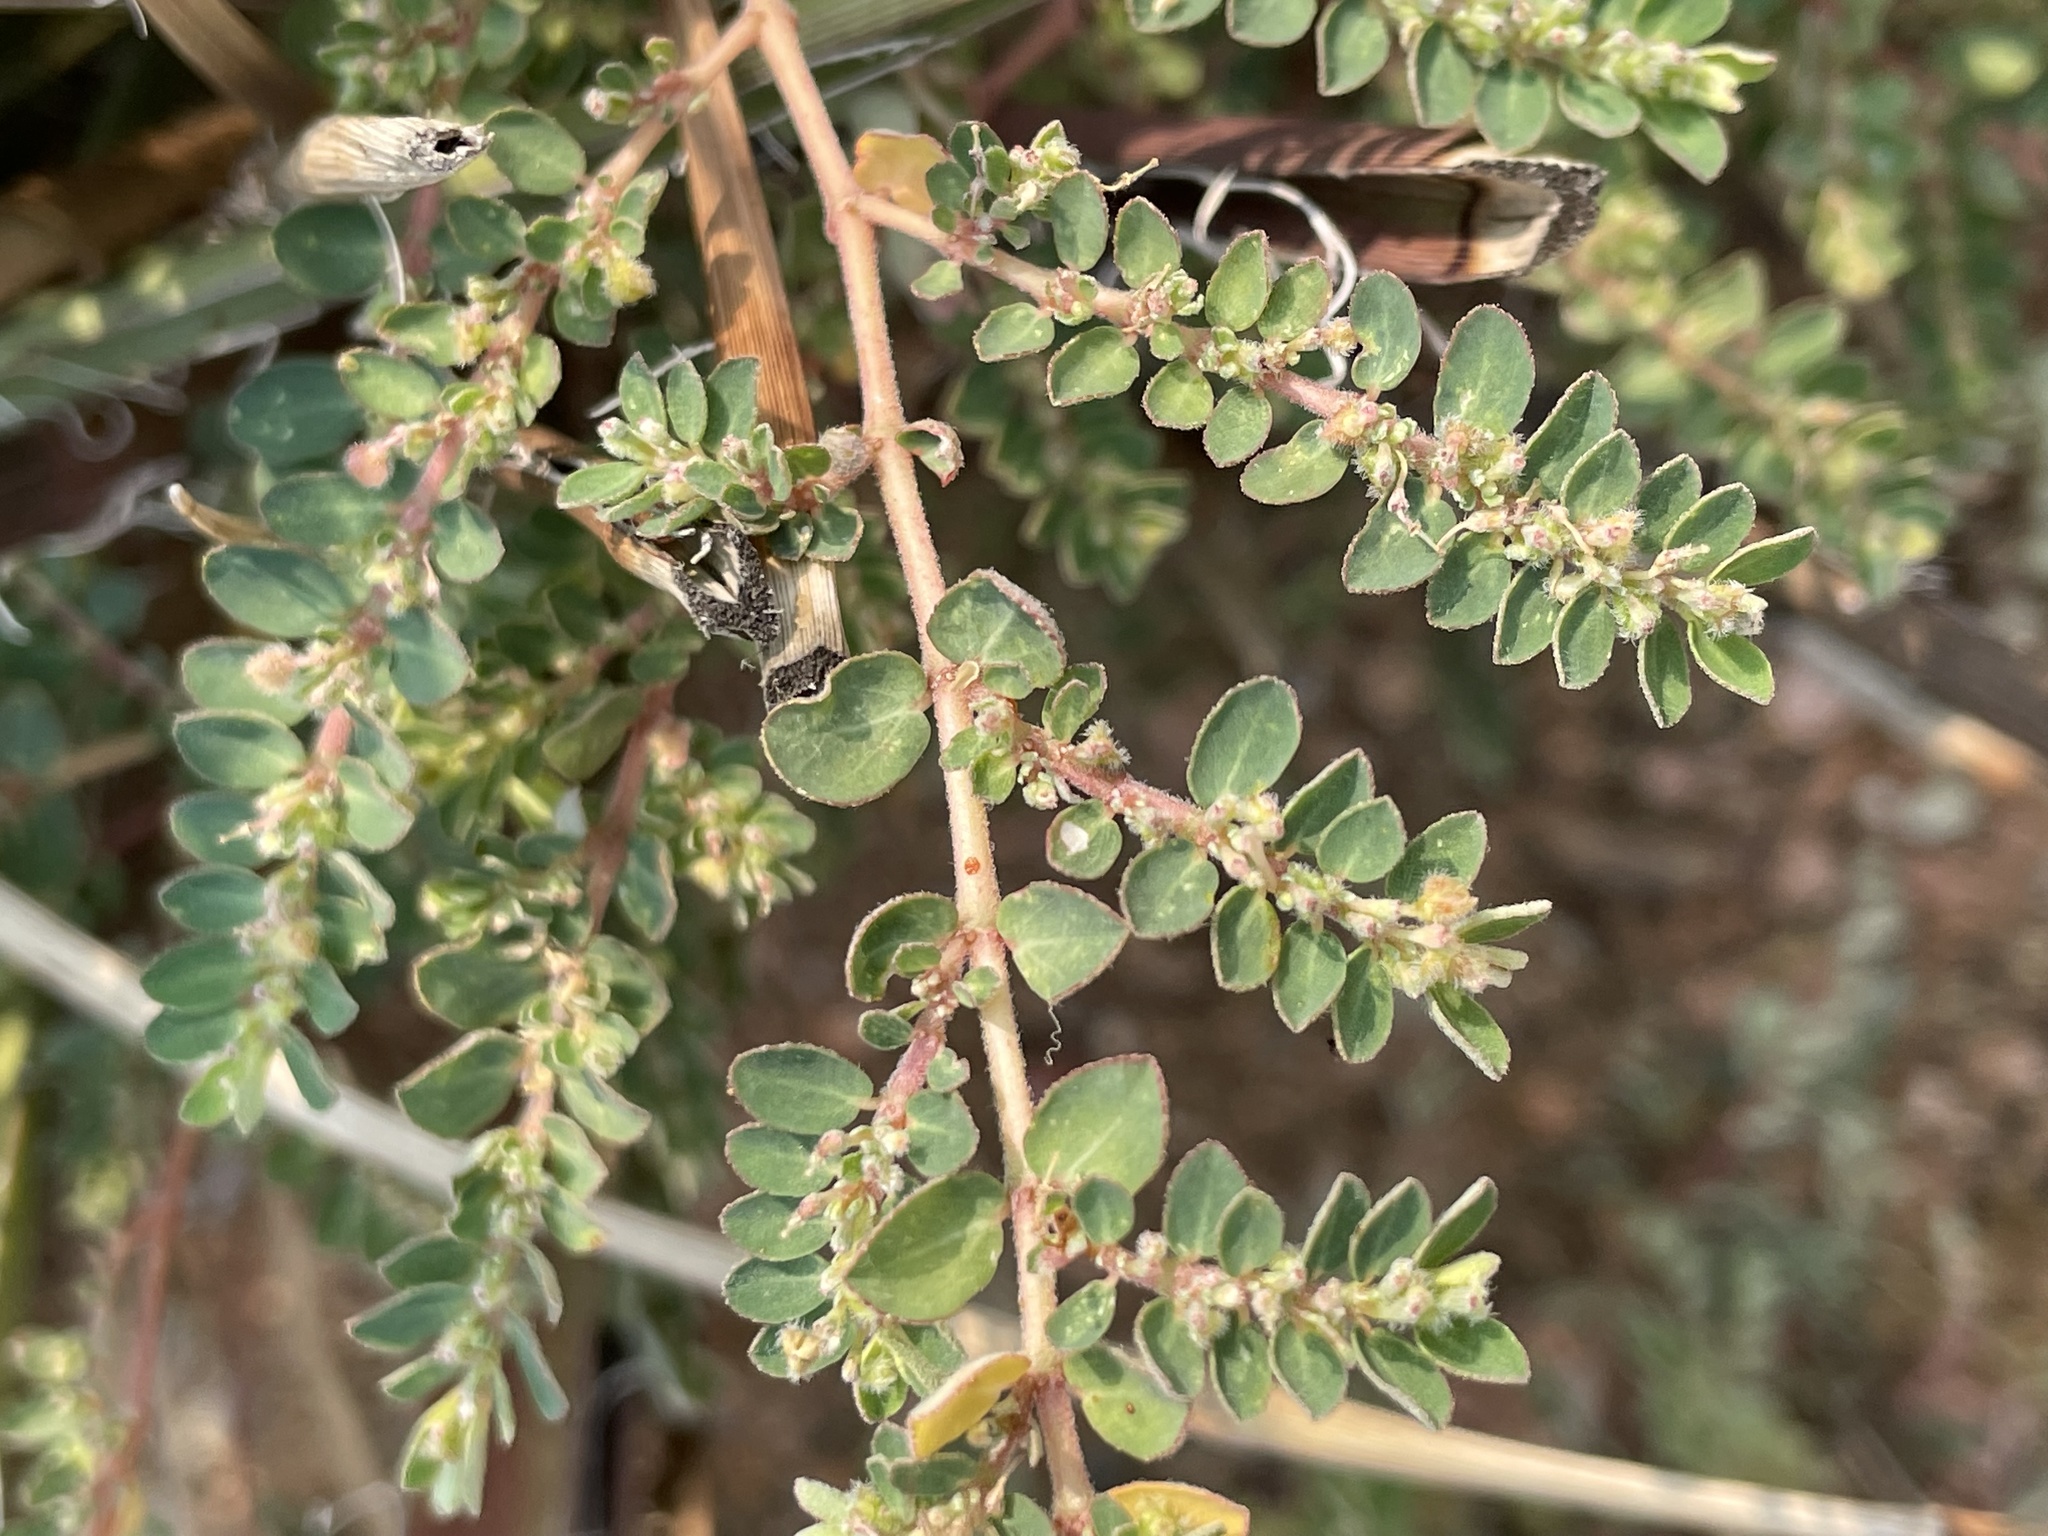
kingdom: Plantae
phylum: Tracheophyta
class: Magnoliopsida
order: Malpighiales
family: Euphorbiaceae
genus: Euphorbia
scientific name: Euphorbia prostrata
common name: Prostrate sandmat
